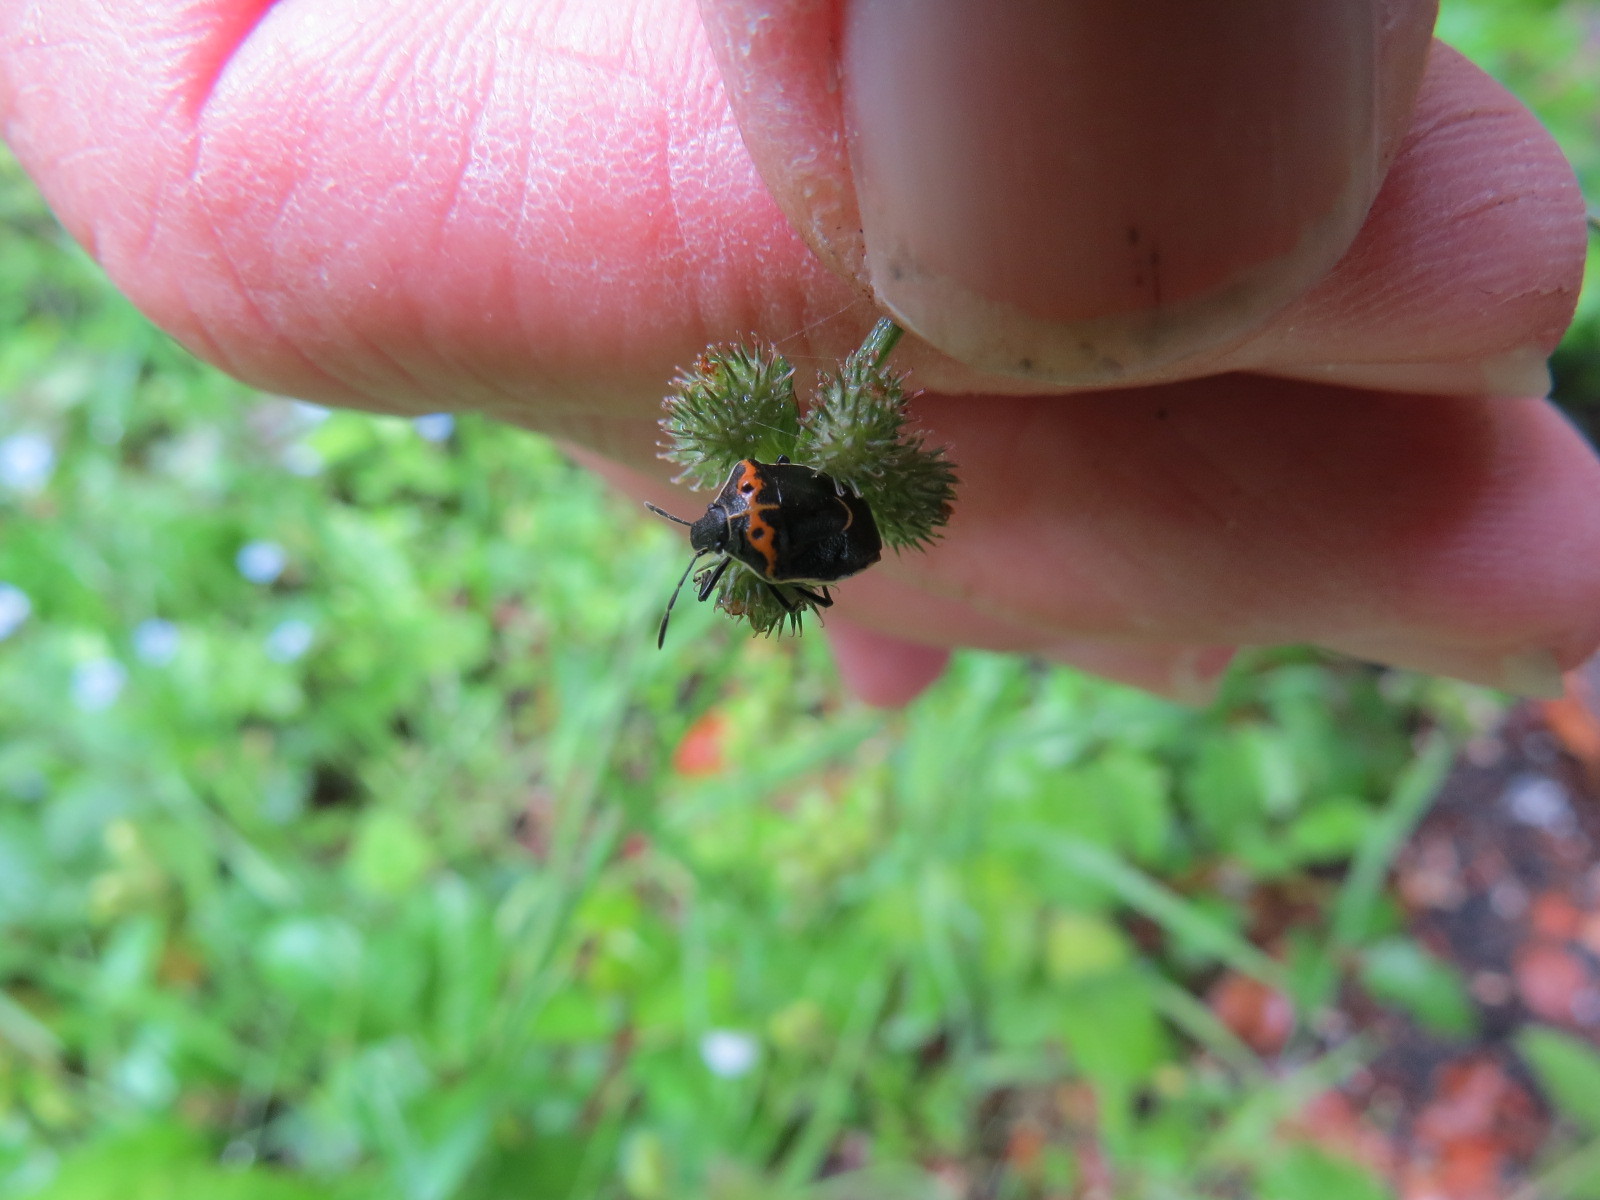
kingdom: Animalia
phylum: Arthropoda
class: Insecta
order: Hemiptera
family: Pentatomidae
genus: Cosmopepla
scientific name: Cosmopepla conspicillaris
